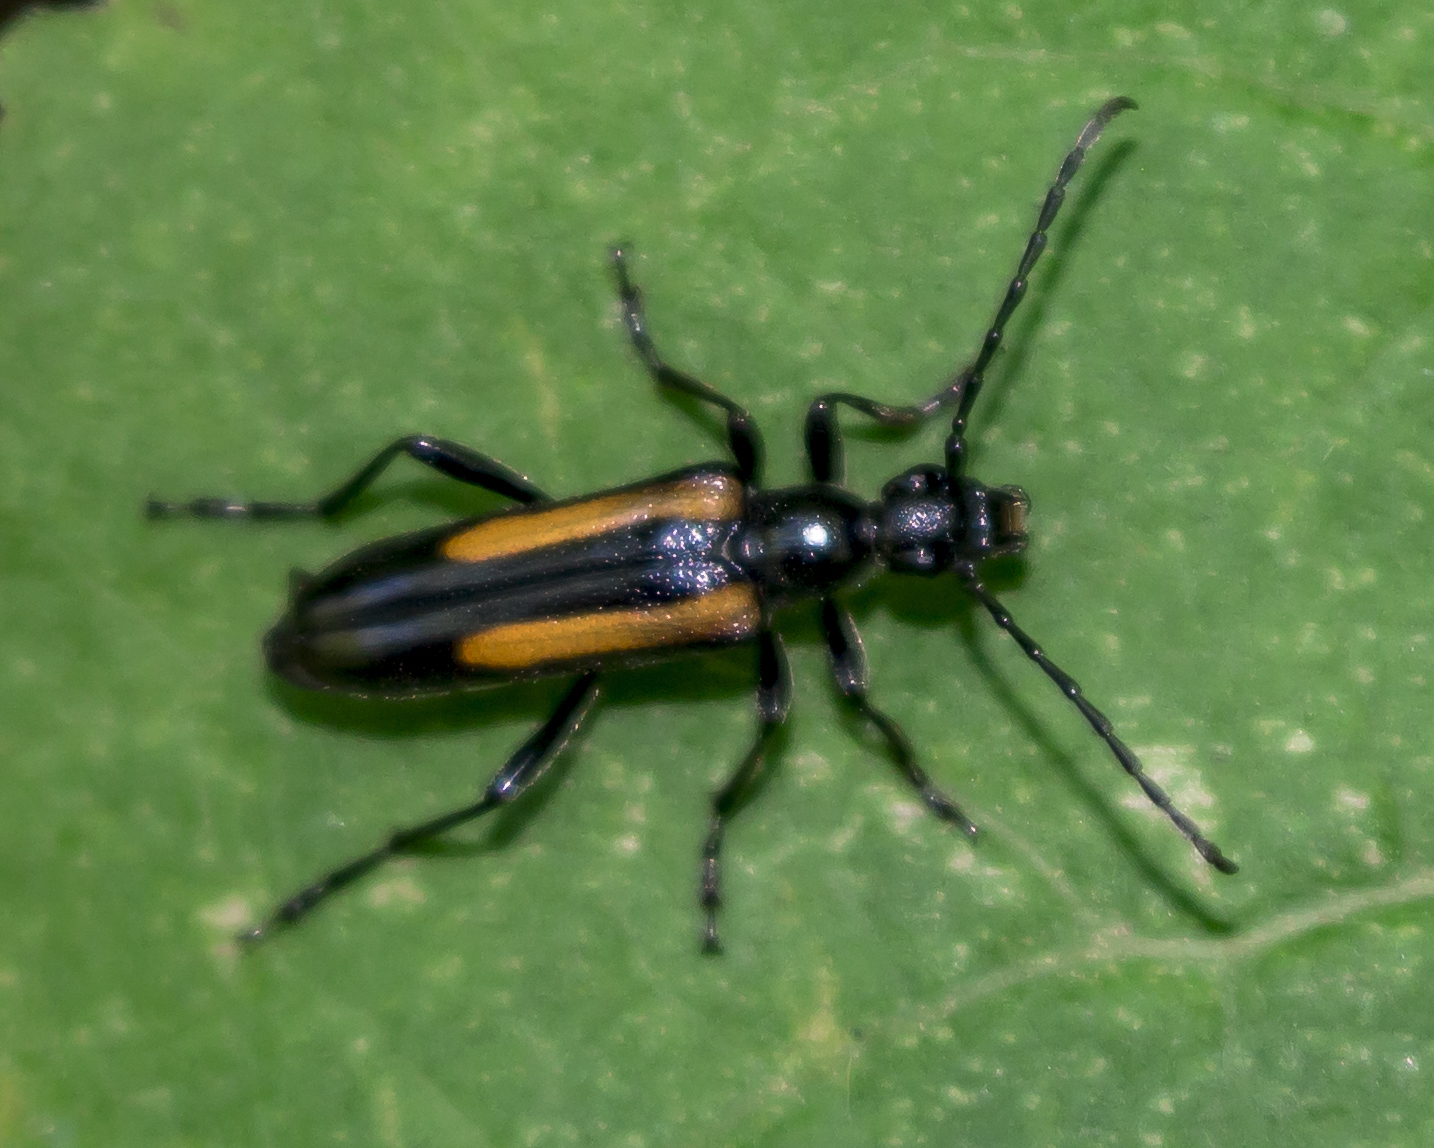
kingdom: Animalia
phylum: Arthropoda
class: Insecta
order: Coleoptera
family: Cerambycidae
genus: Strangalepta
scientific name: Strangalepta abbreviata
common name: Strangalepta flower longhorn beetle
